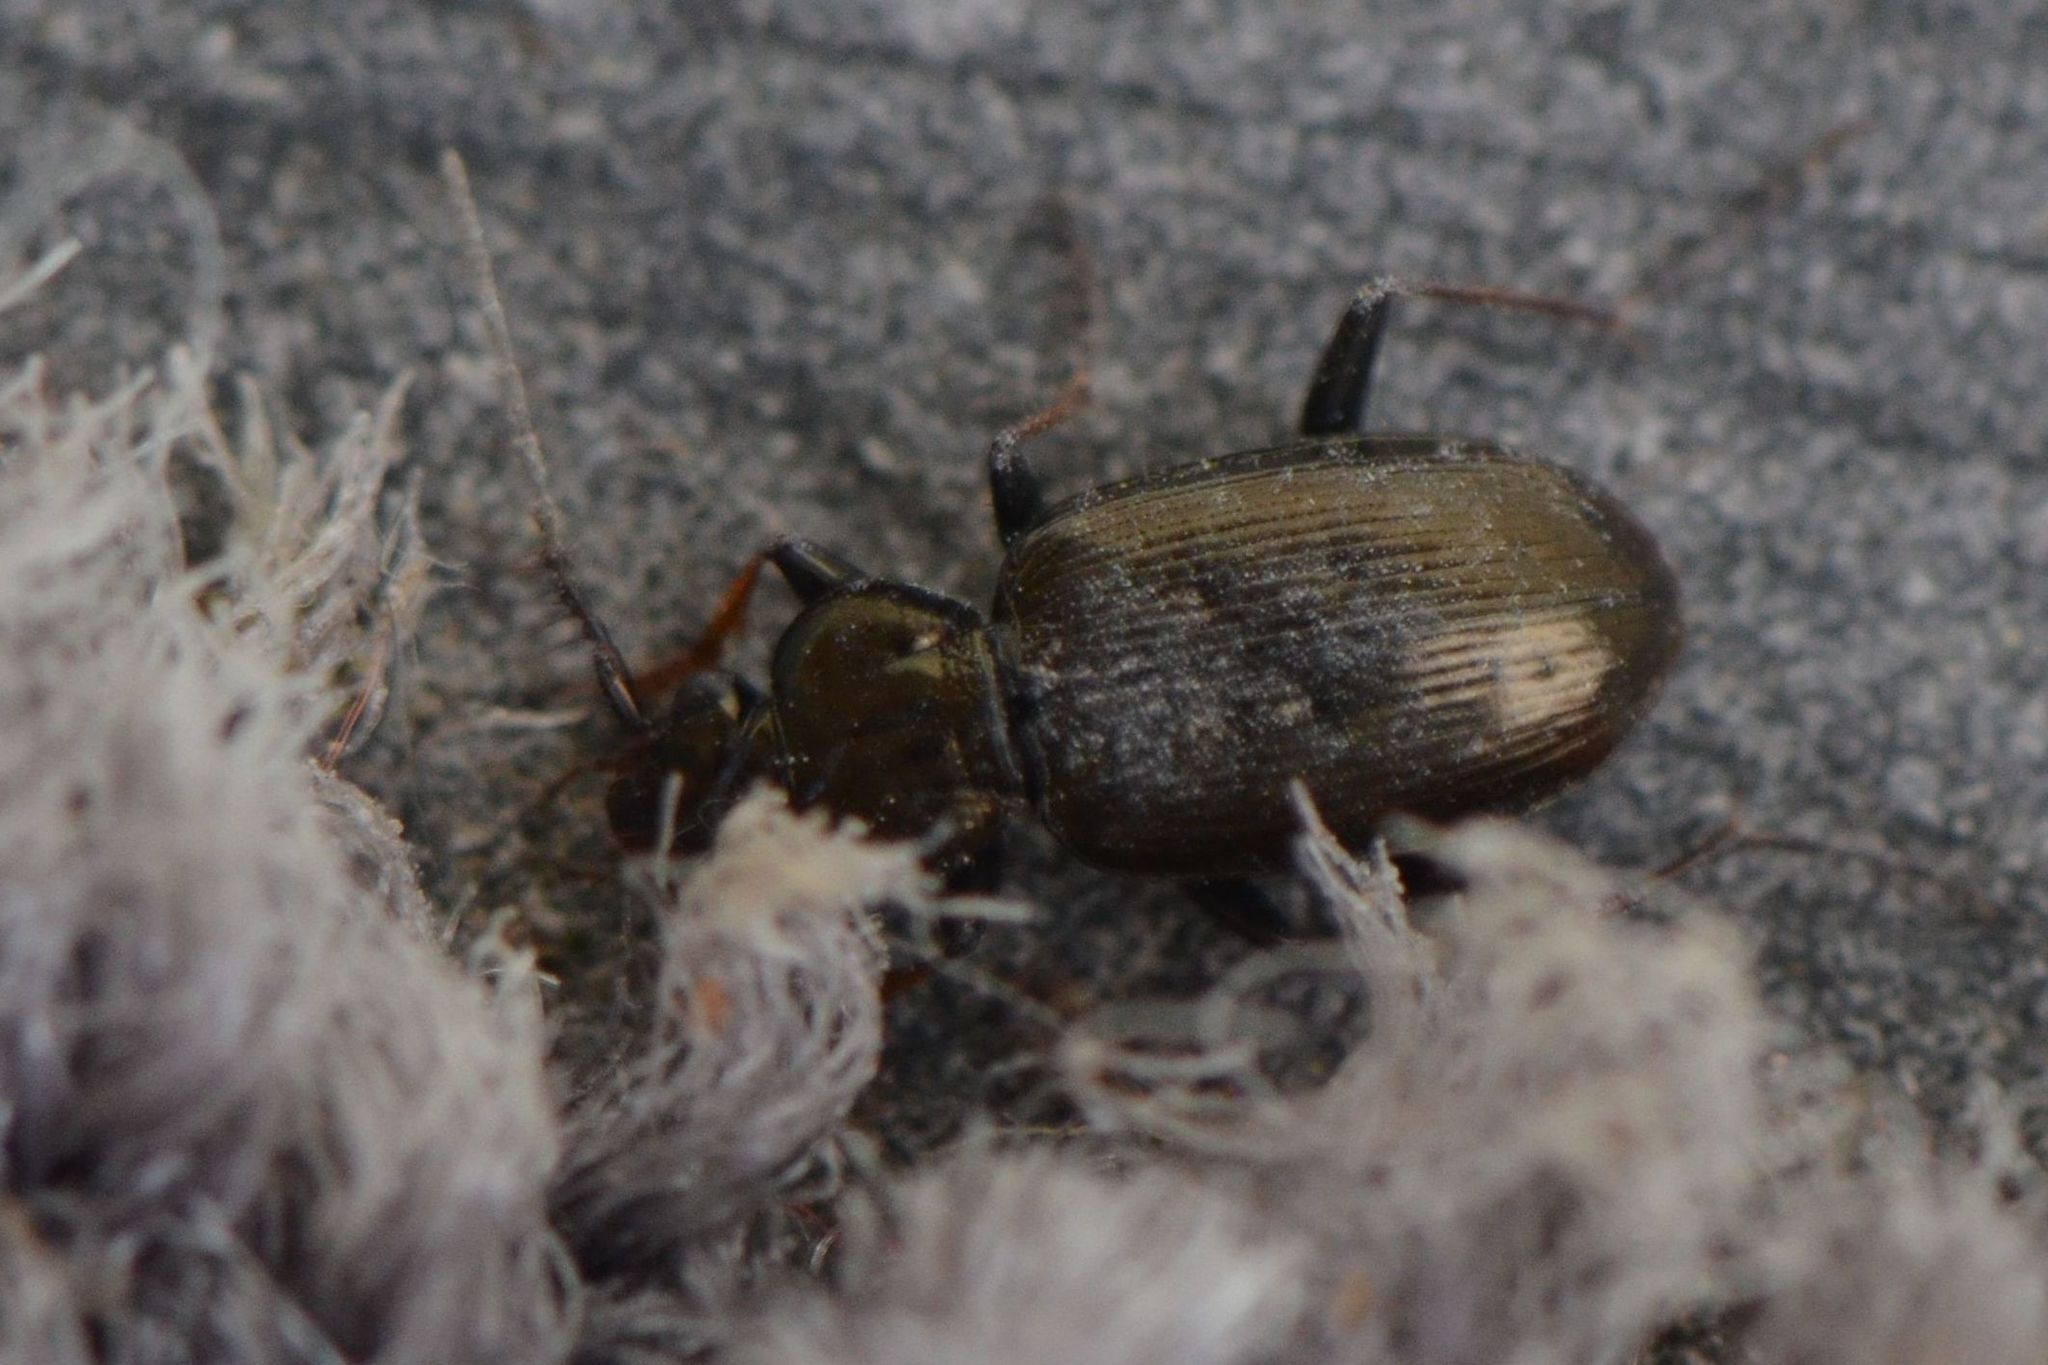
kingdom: Animalia
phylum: Arthropoda
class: Insecta
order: Coleoptera
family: Carabidae
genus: Loricera
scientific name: Loricera pilicornis
